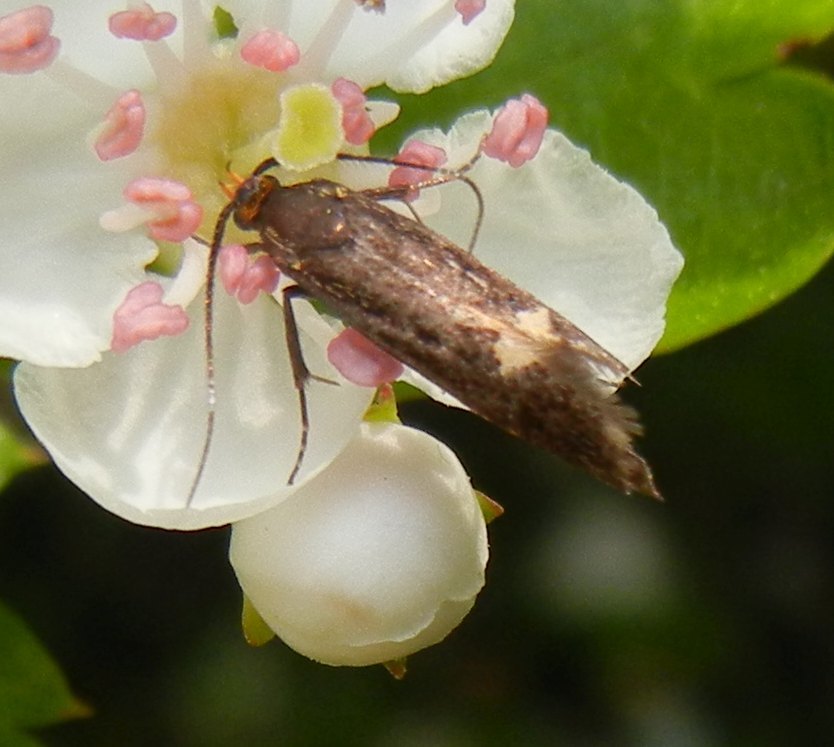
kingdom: Animalia
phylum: Arthropoda
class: Insecta
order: Lepidoptera
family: Oecophoridae
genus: Dafa
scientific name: Dafa Esperia sulphurella
